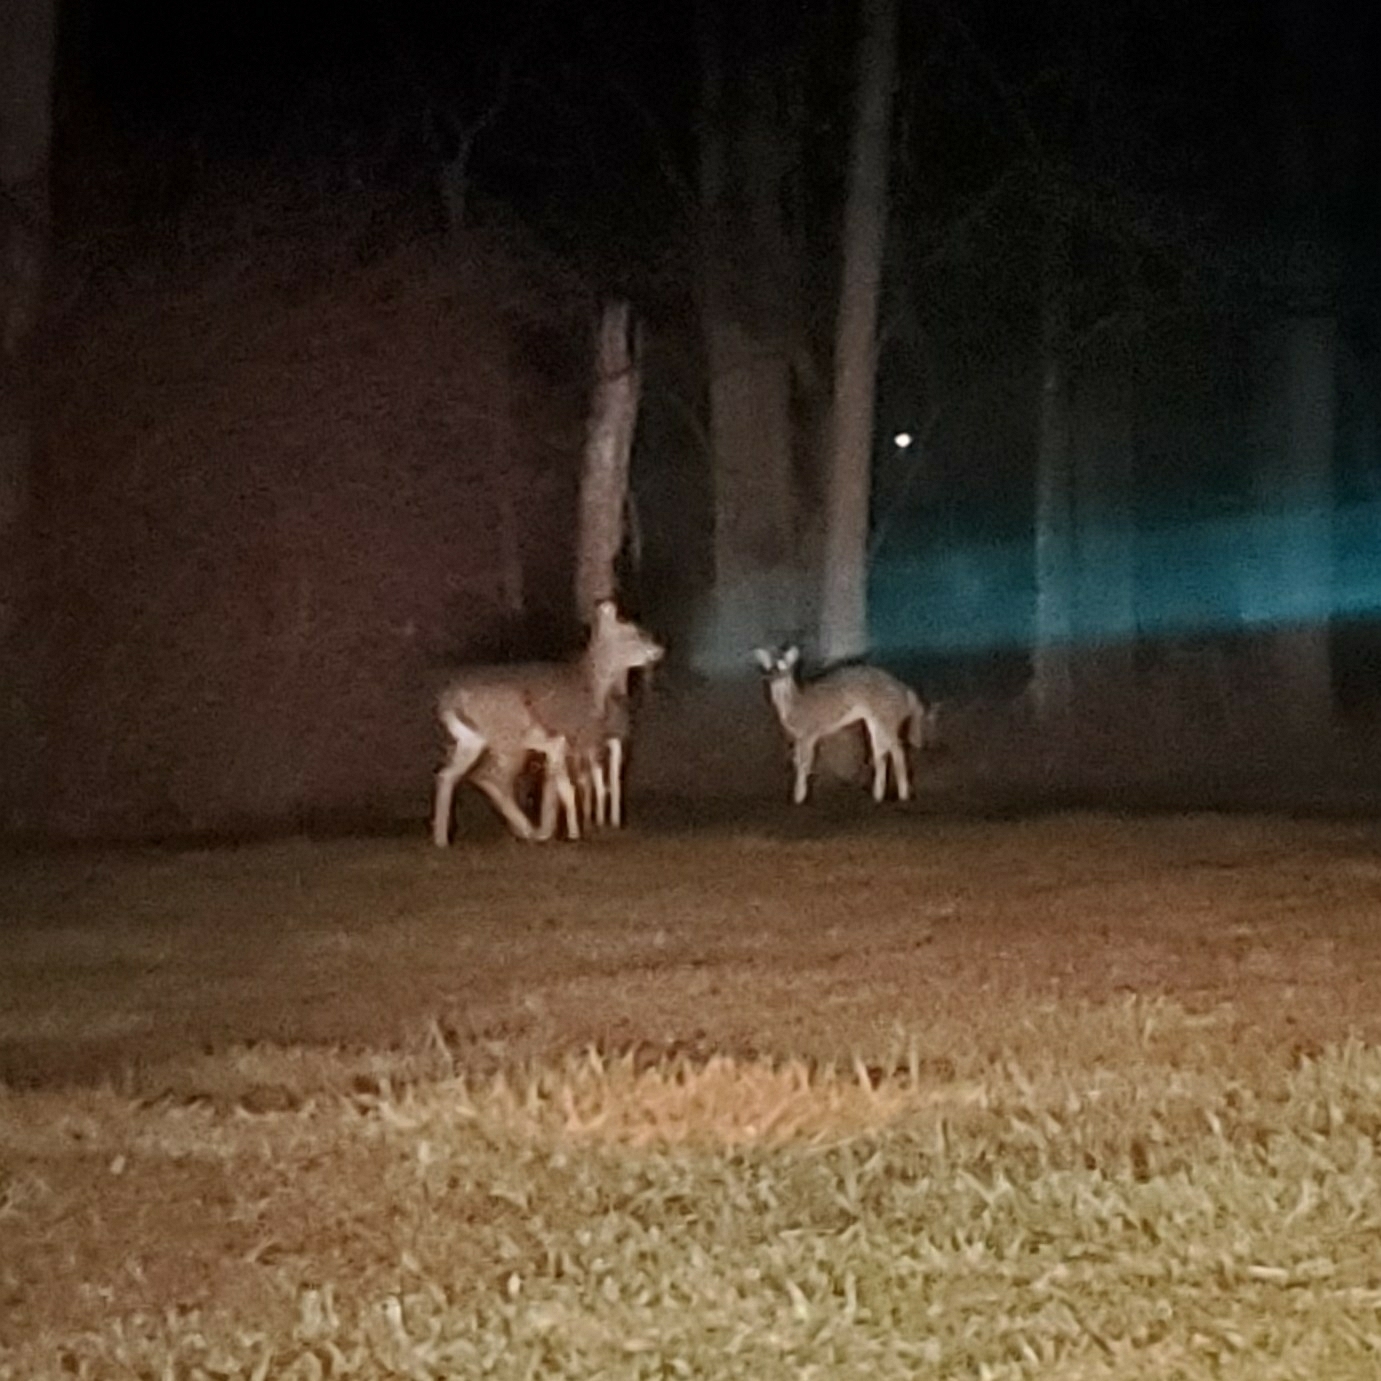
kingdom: Animalia
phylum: Chordata
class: Mammalia
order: Artiodactyla
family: Cervidae
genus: Odocoileus
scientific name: Odocoileus virginianus
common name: White-tailed deer
